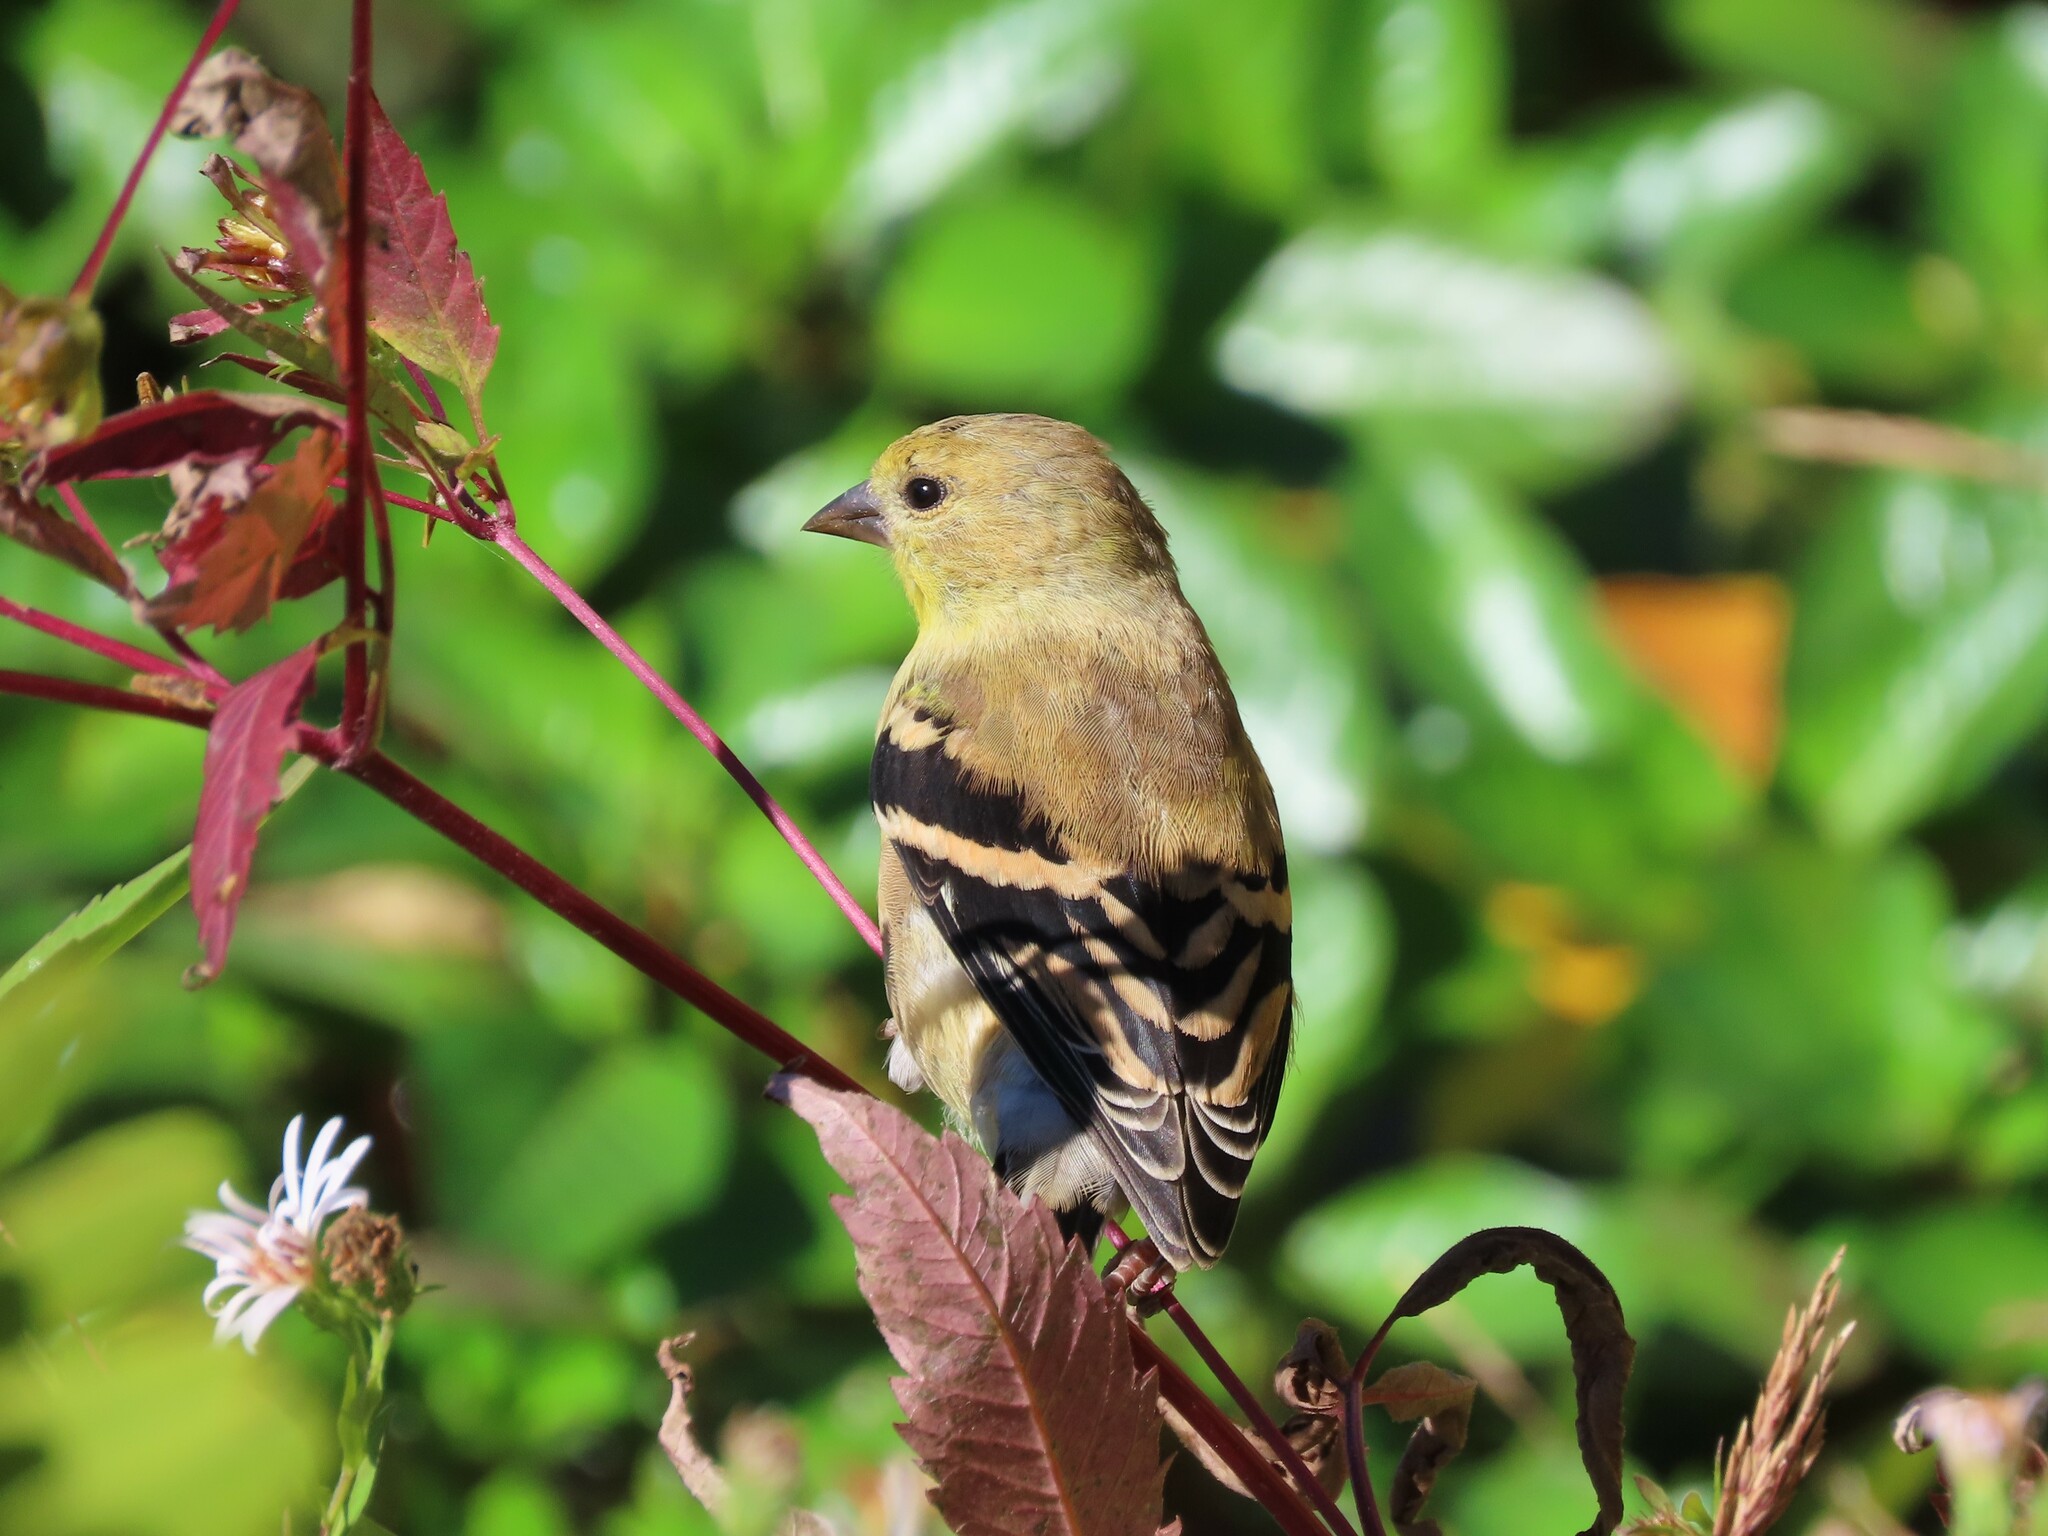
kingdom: Animalia
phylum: Chordata
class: Aves
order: Passeriformes
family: Fringillidae
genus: Spinus
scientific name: Spinus tristis
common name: American goldfinch
